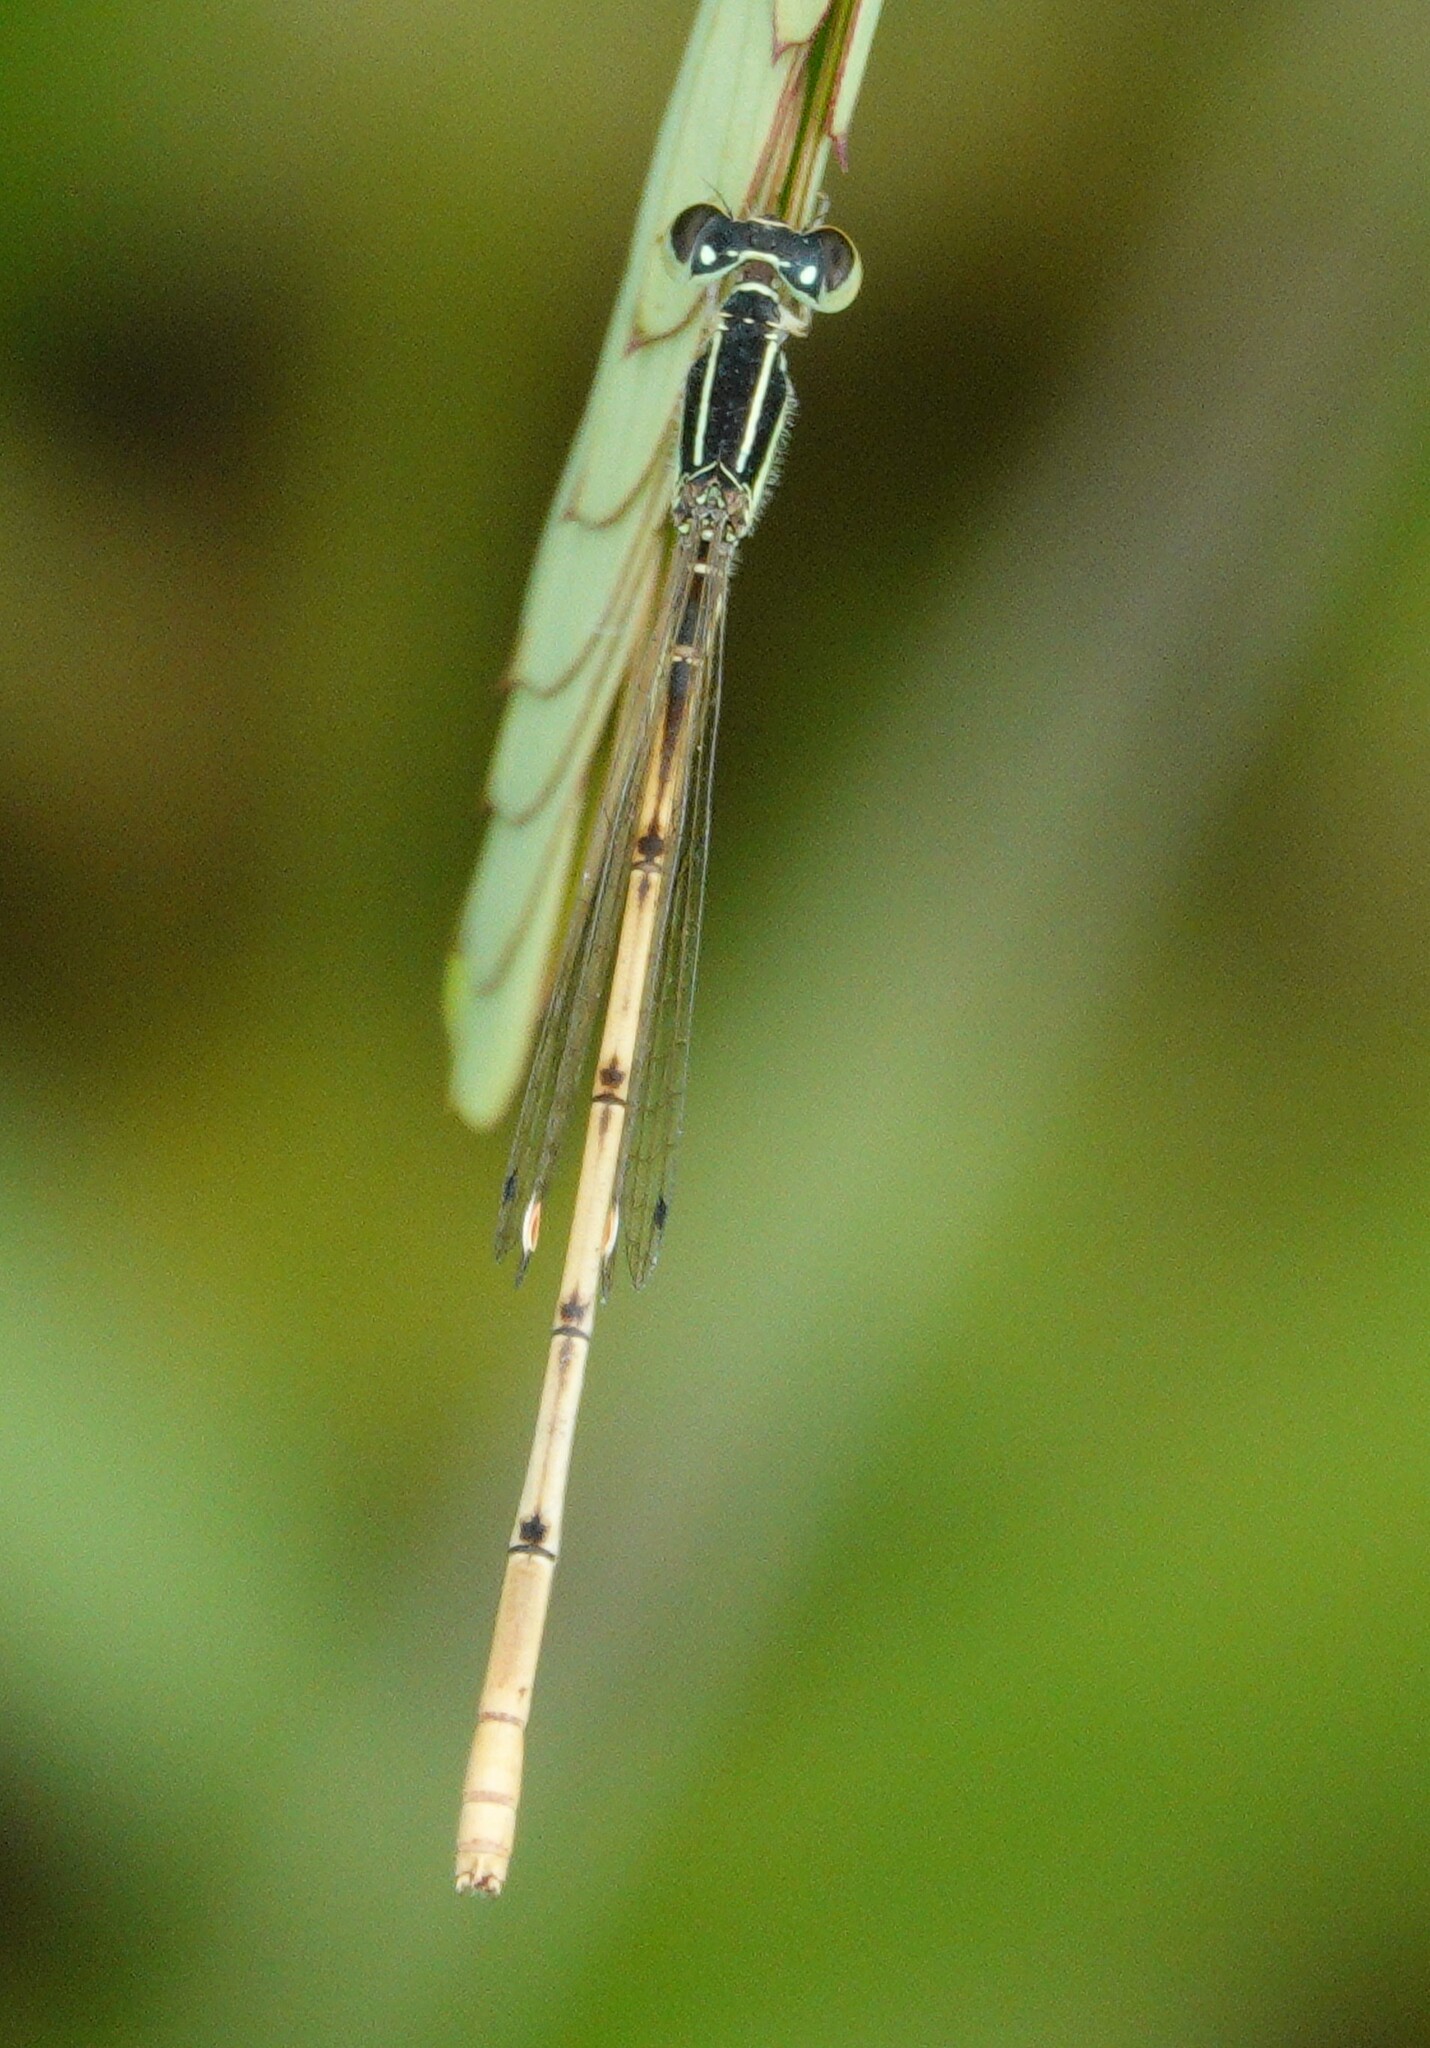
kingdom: Animalia
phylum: Arthropoda
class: Insecta
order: Odonata
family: Coenagrionidae
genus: Ischnura
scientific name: Ischnura hastata
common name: Citrine forktail
